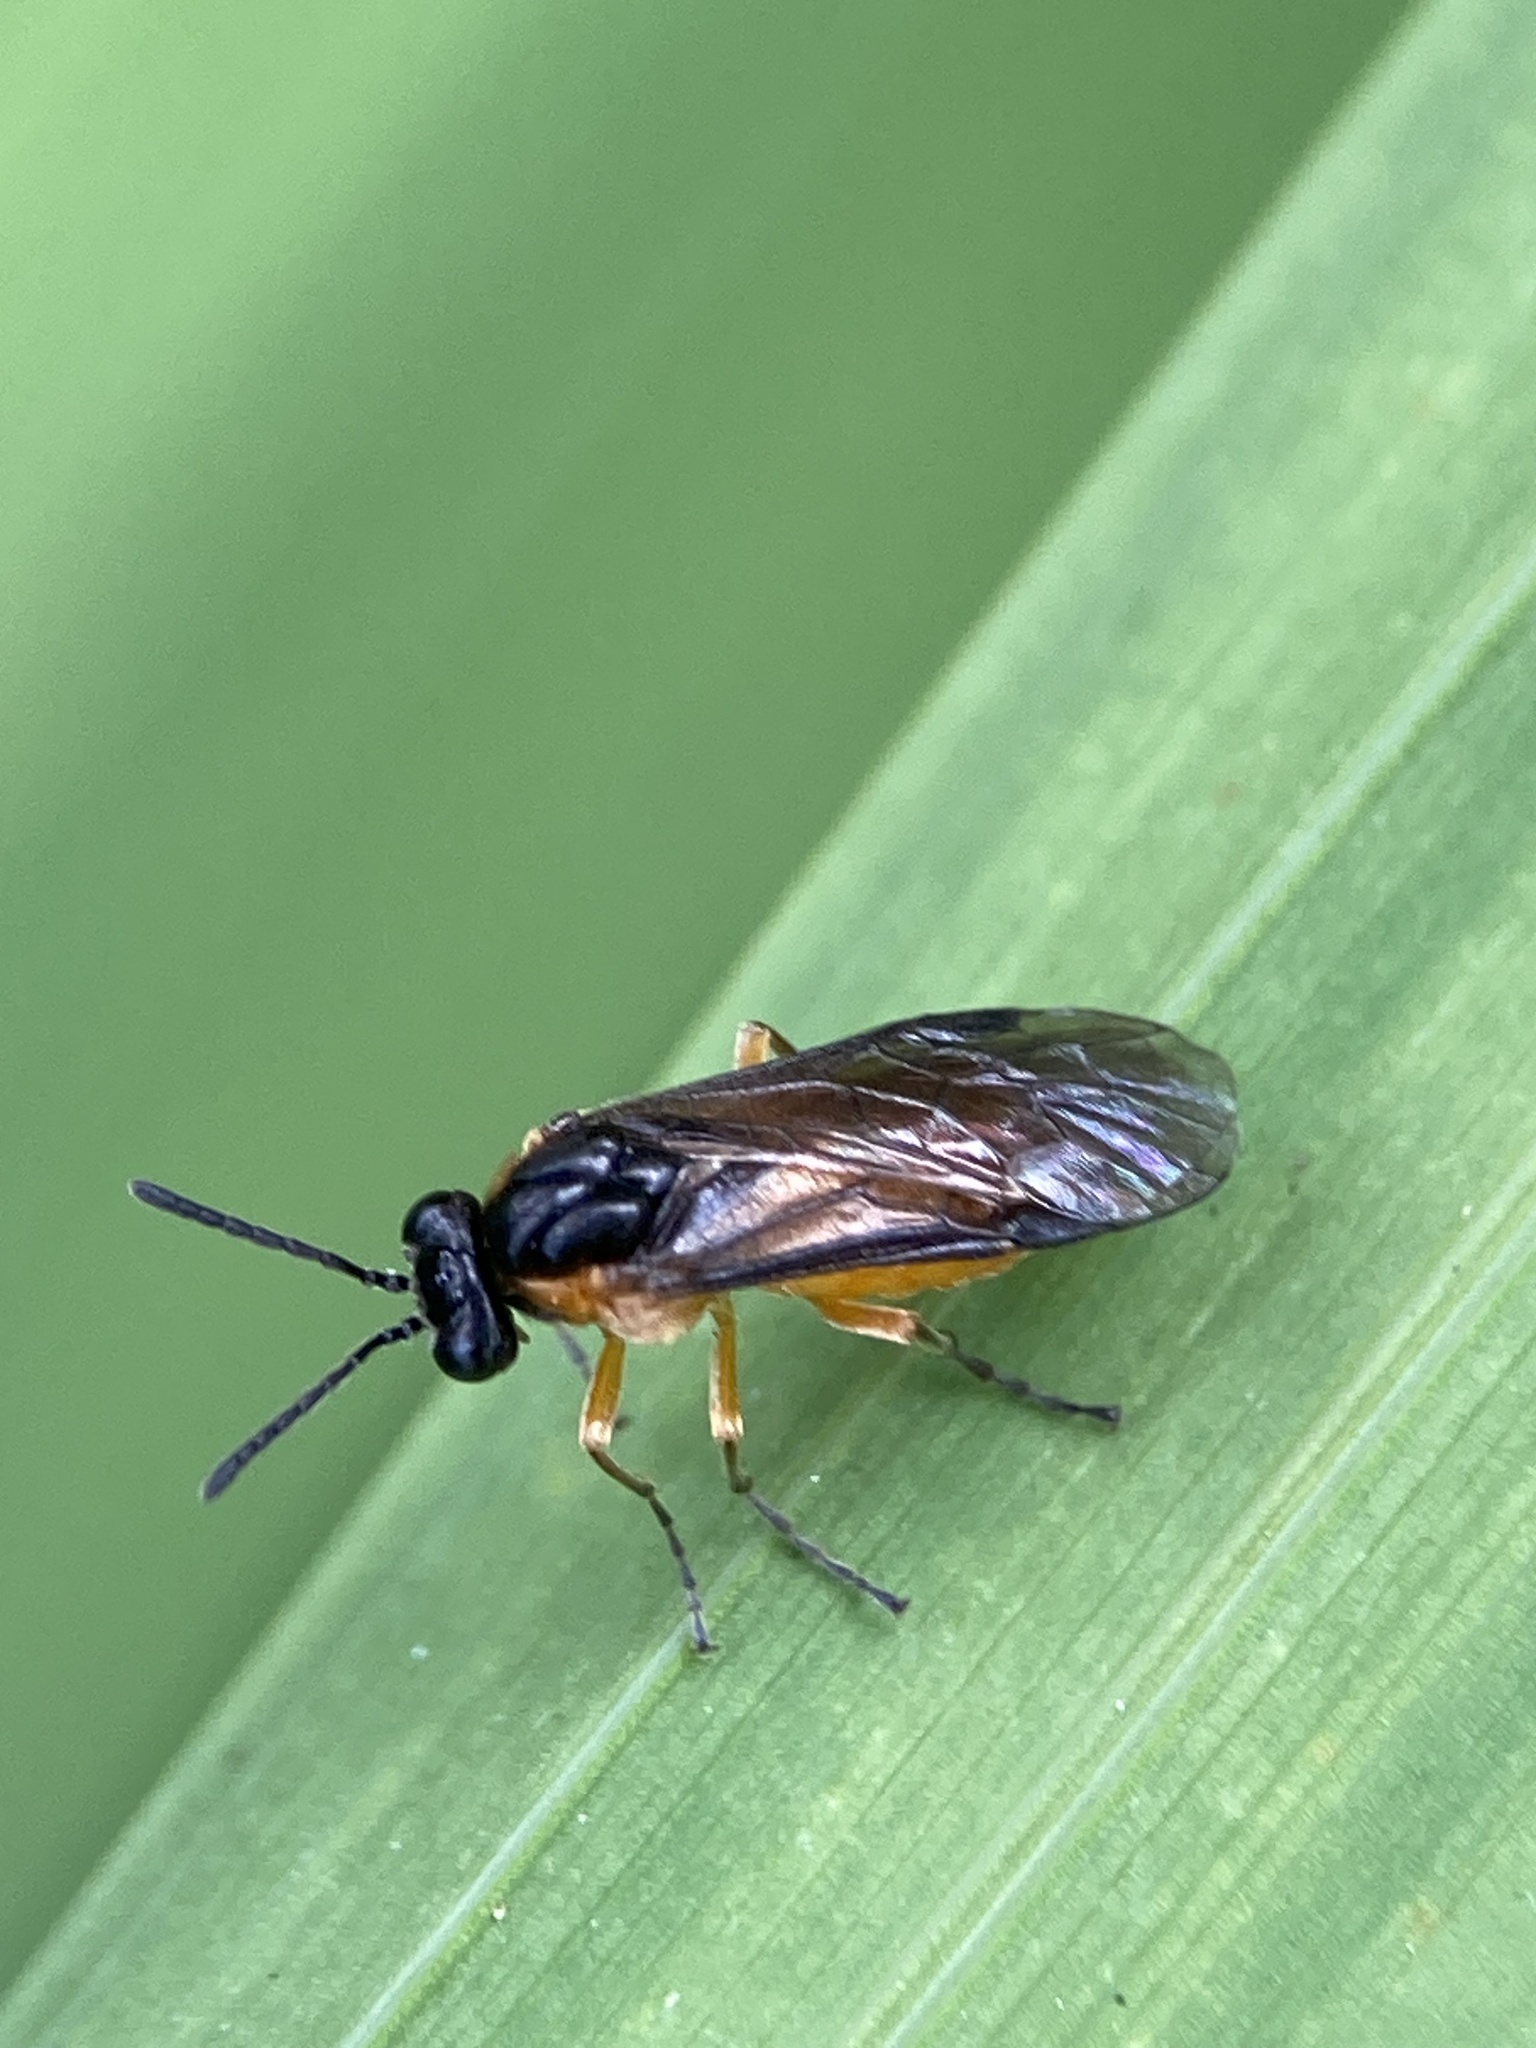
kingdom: Animalia
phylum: Arthropoda
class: Insecta
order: Hymenoptera
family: Tenthredinidae
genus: Athalia
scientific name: Athalia lugens
